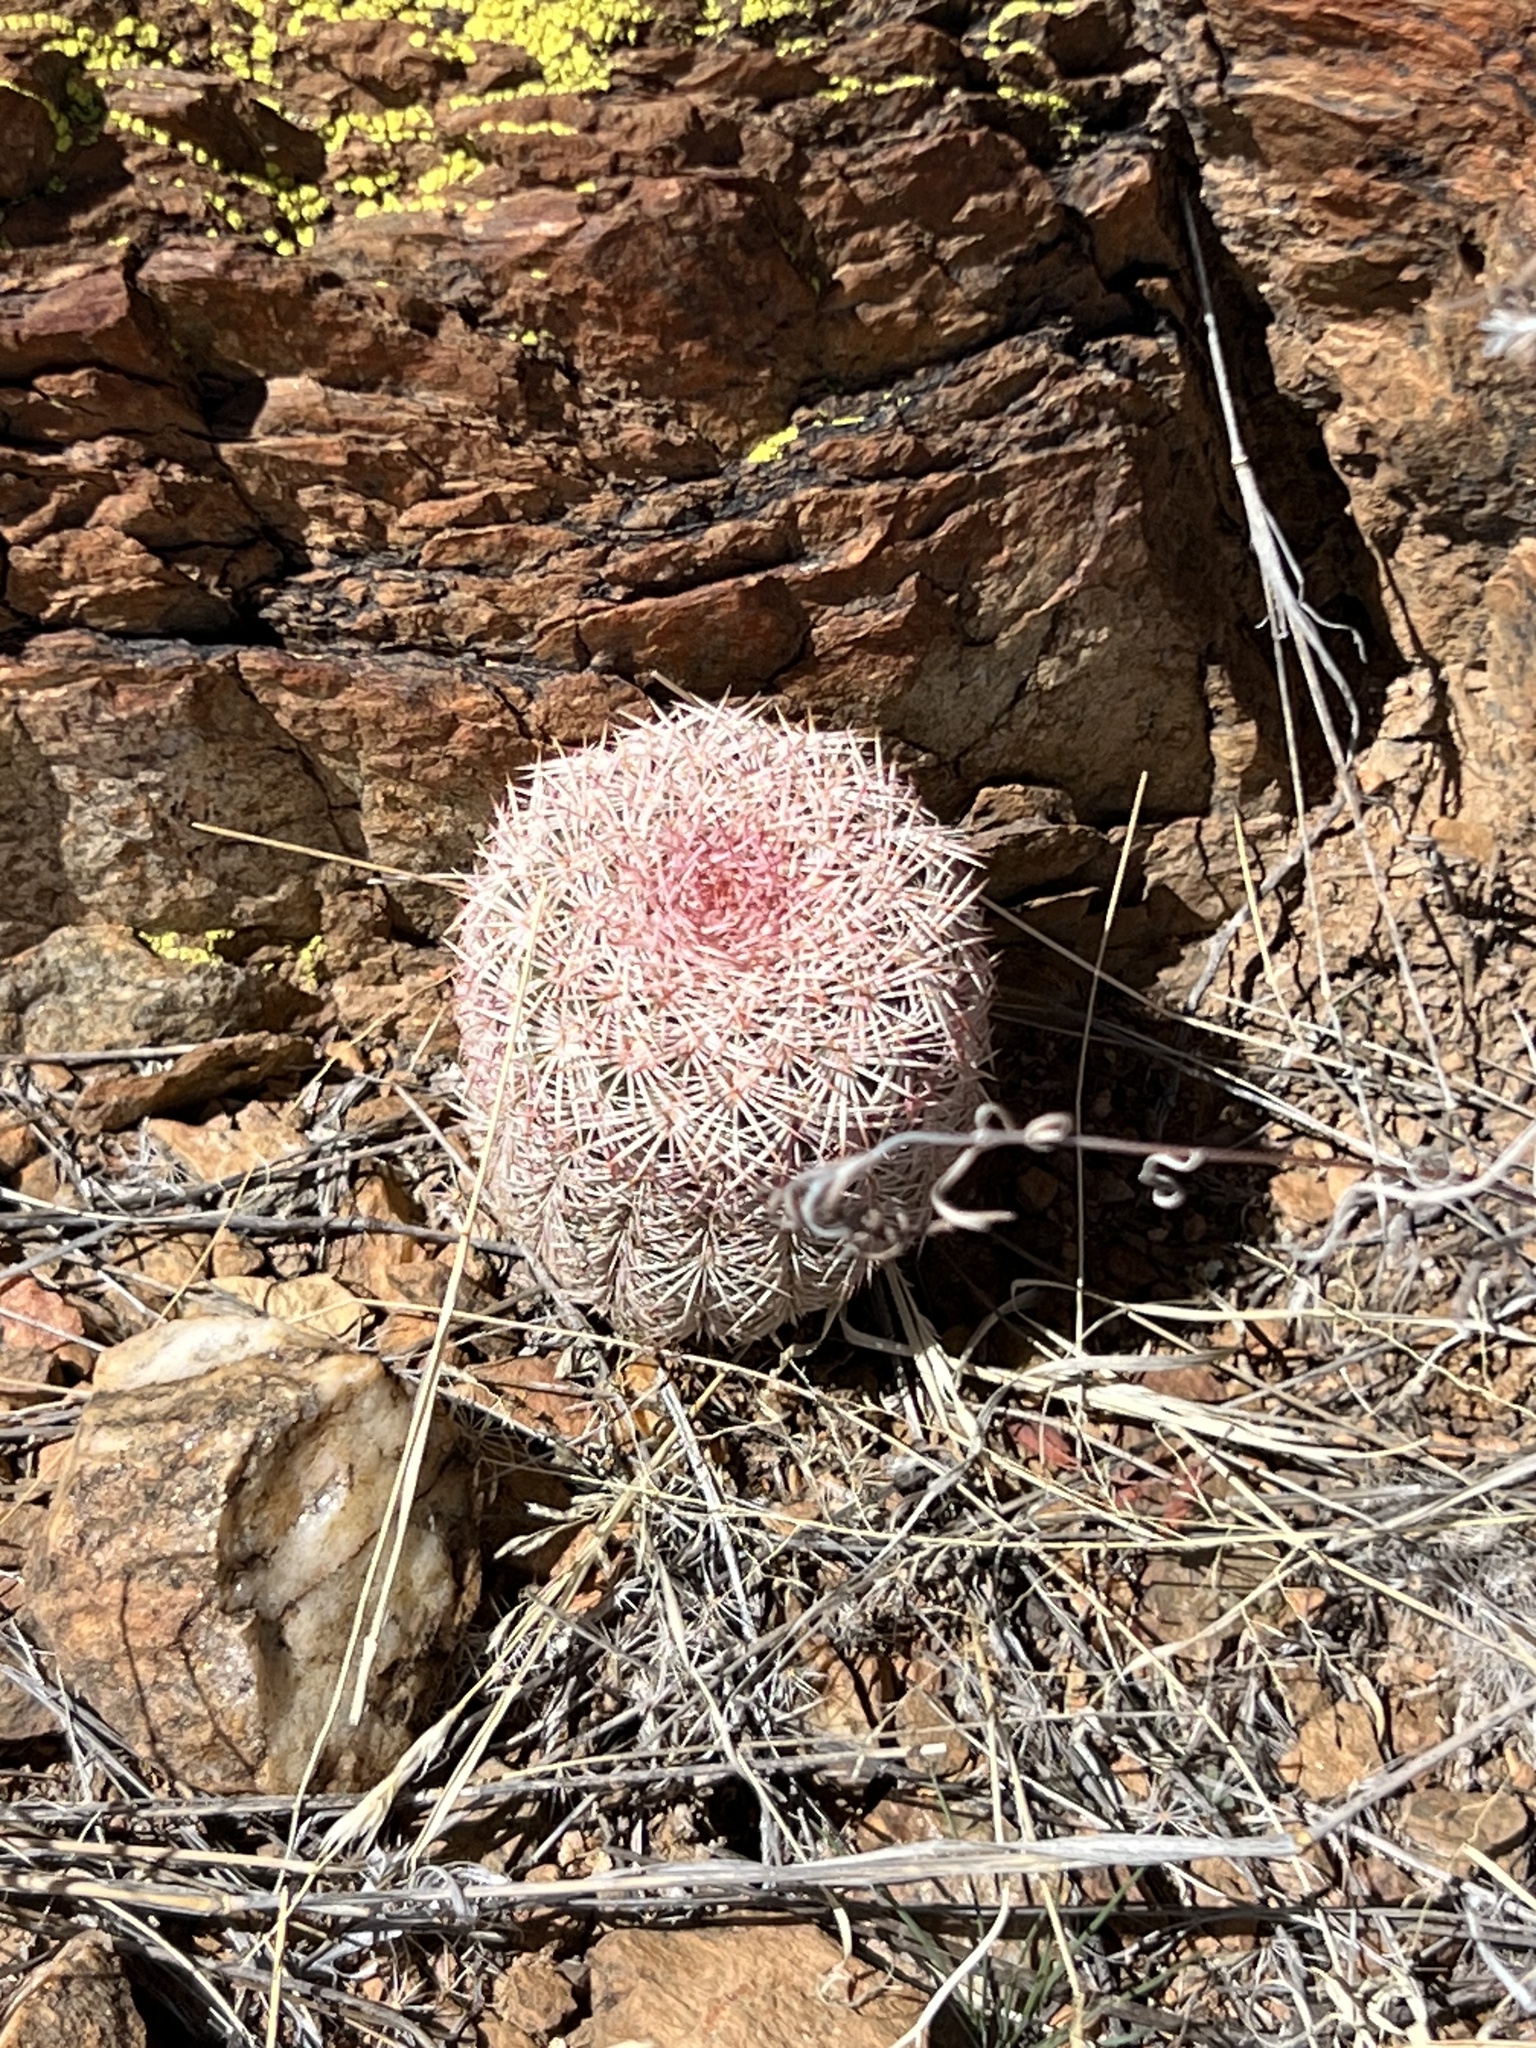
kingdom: Plantae
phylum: Tracheophyta
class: Magnoliopsida
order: Caryophyllales
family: Cactaceae
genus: Echinocereus
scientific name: Echinocereus rigidissimus
